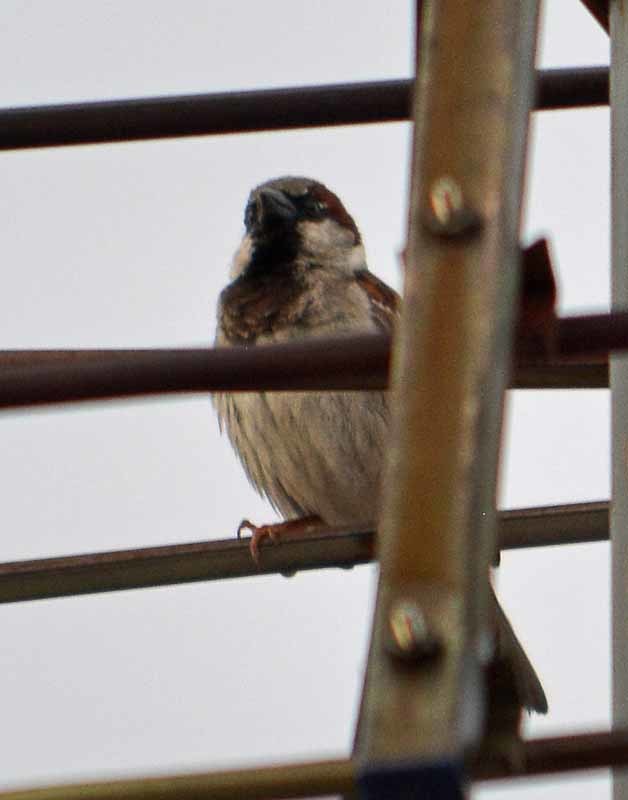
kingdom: Animalia
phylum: Chordata
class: Aves
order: Passeriformes
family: Passeridae
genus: Passer
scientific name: Passer domesticus
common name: House sparrow
